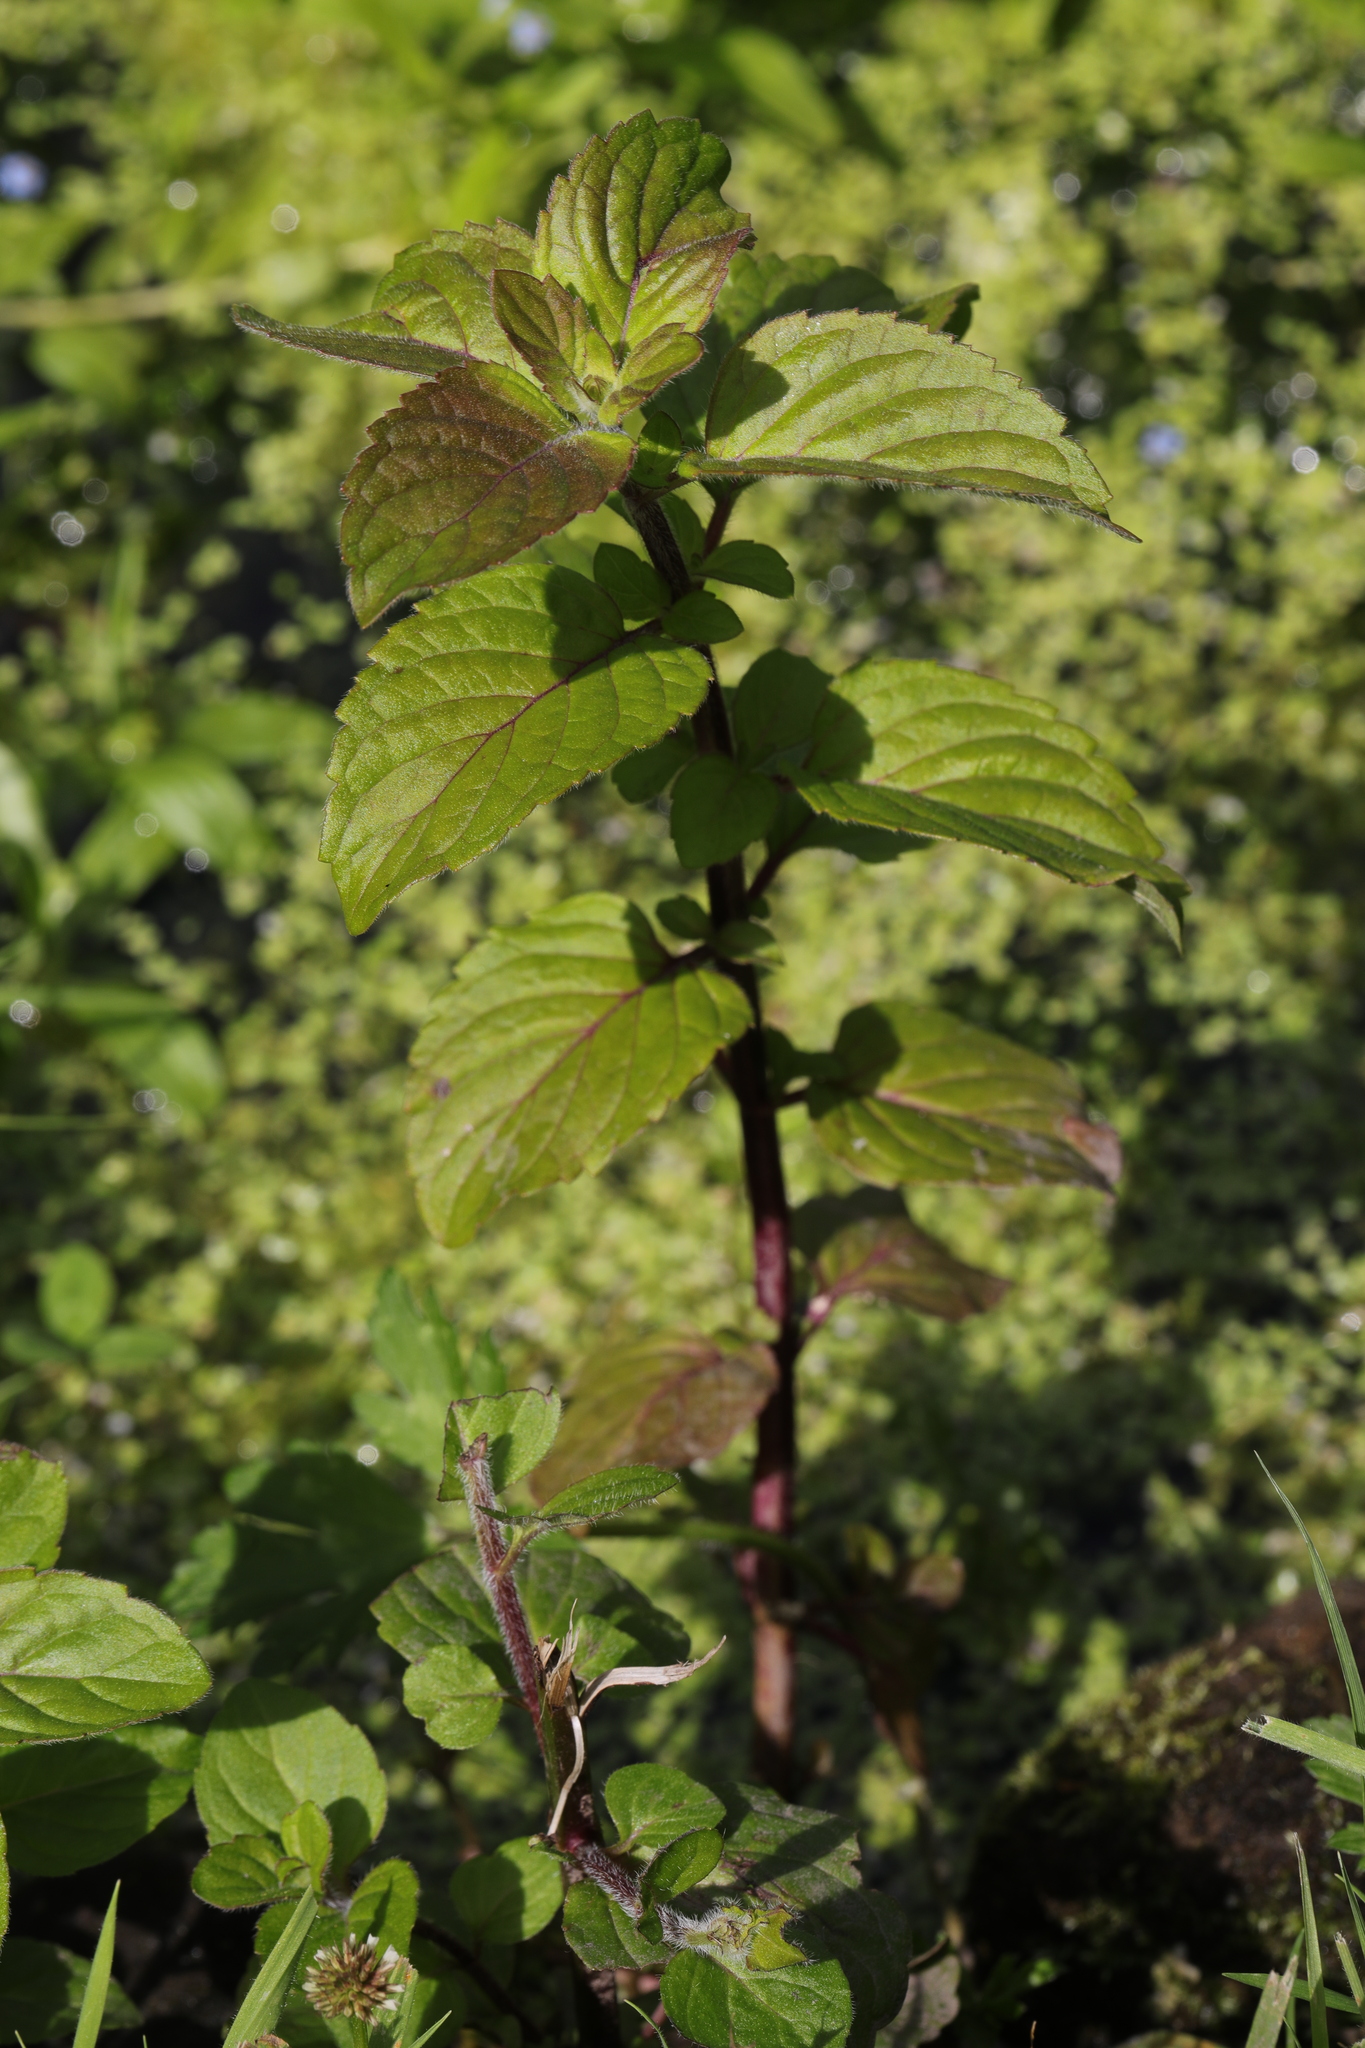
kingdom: Plantae
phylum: Tracheophyta
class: Magnoliopsida
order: Lamiales
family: Lamiaceae
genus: Mentha
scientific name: Mentha aquatica
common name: Water mint
